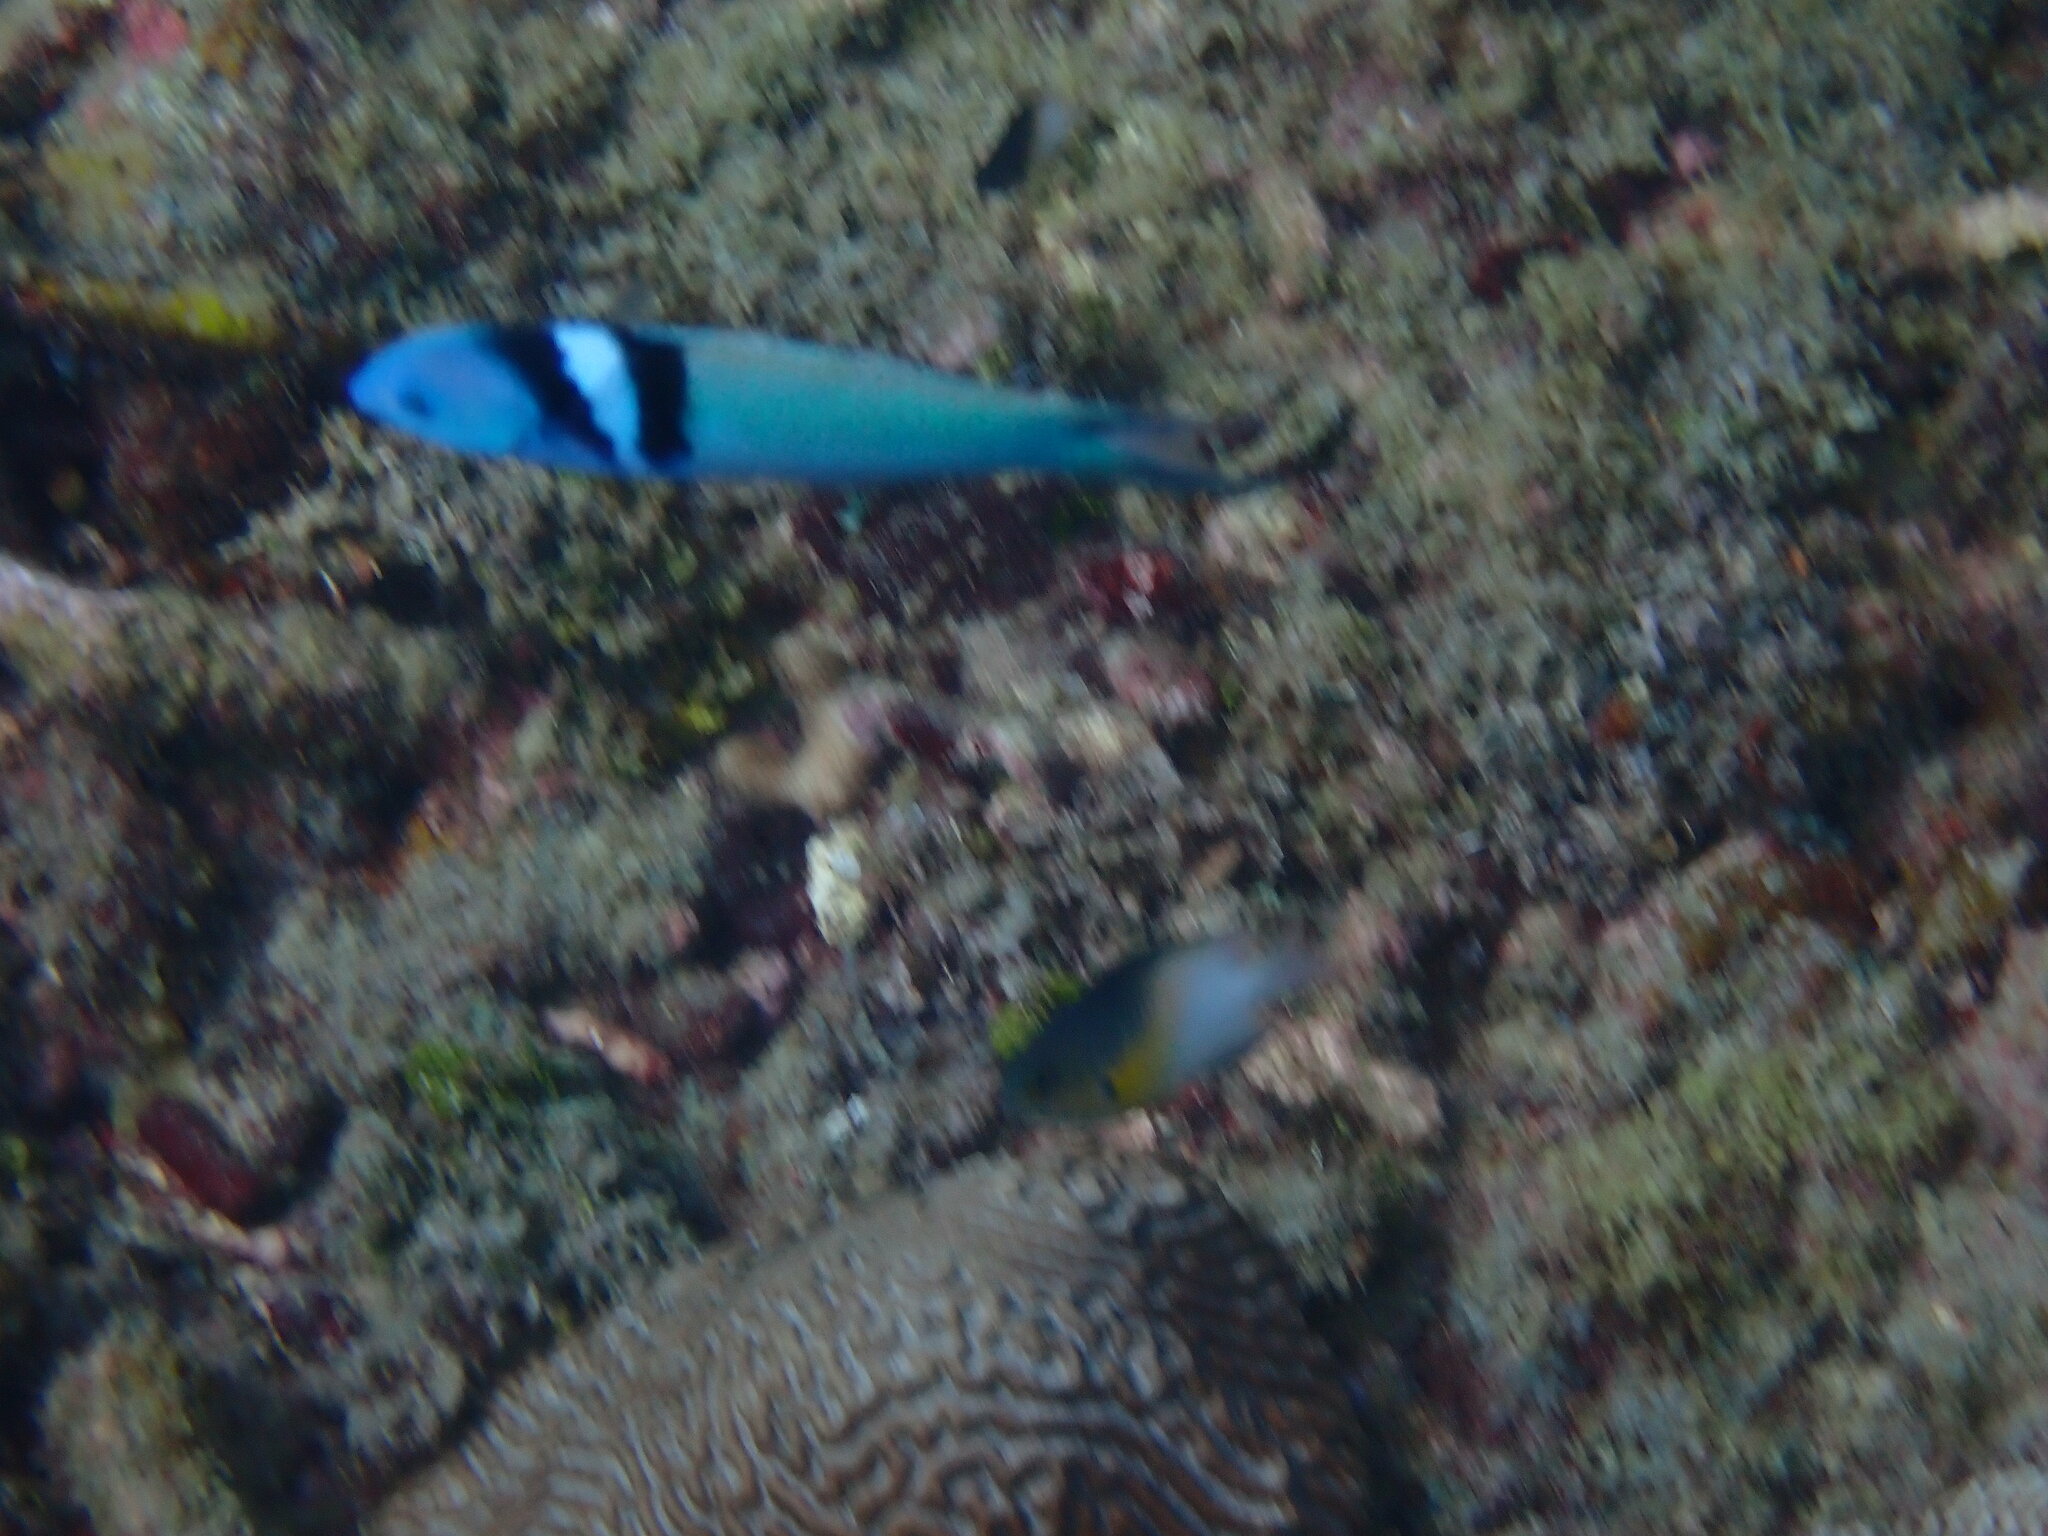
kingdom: Animalia
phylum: Chordata
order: Perciformes
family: Labridae
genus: Thalassoma
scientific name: Thalassoma bifasciatum
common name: Bluehead wrasse
